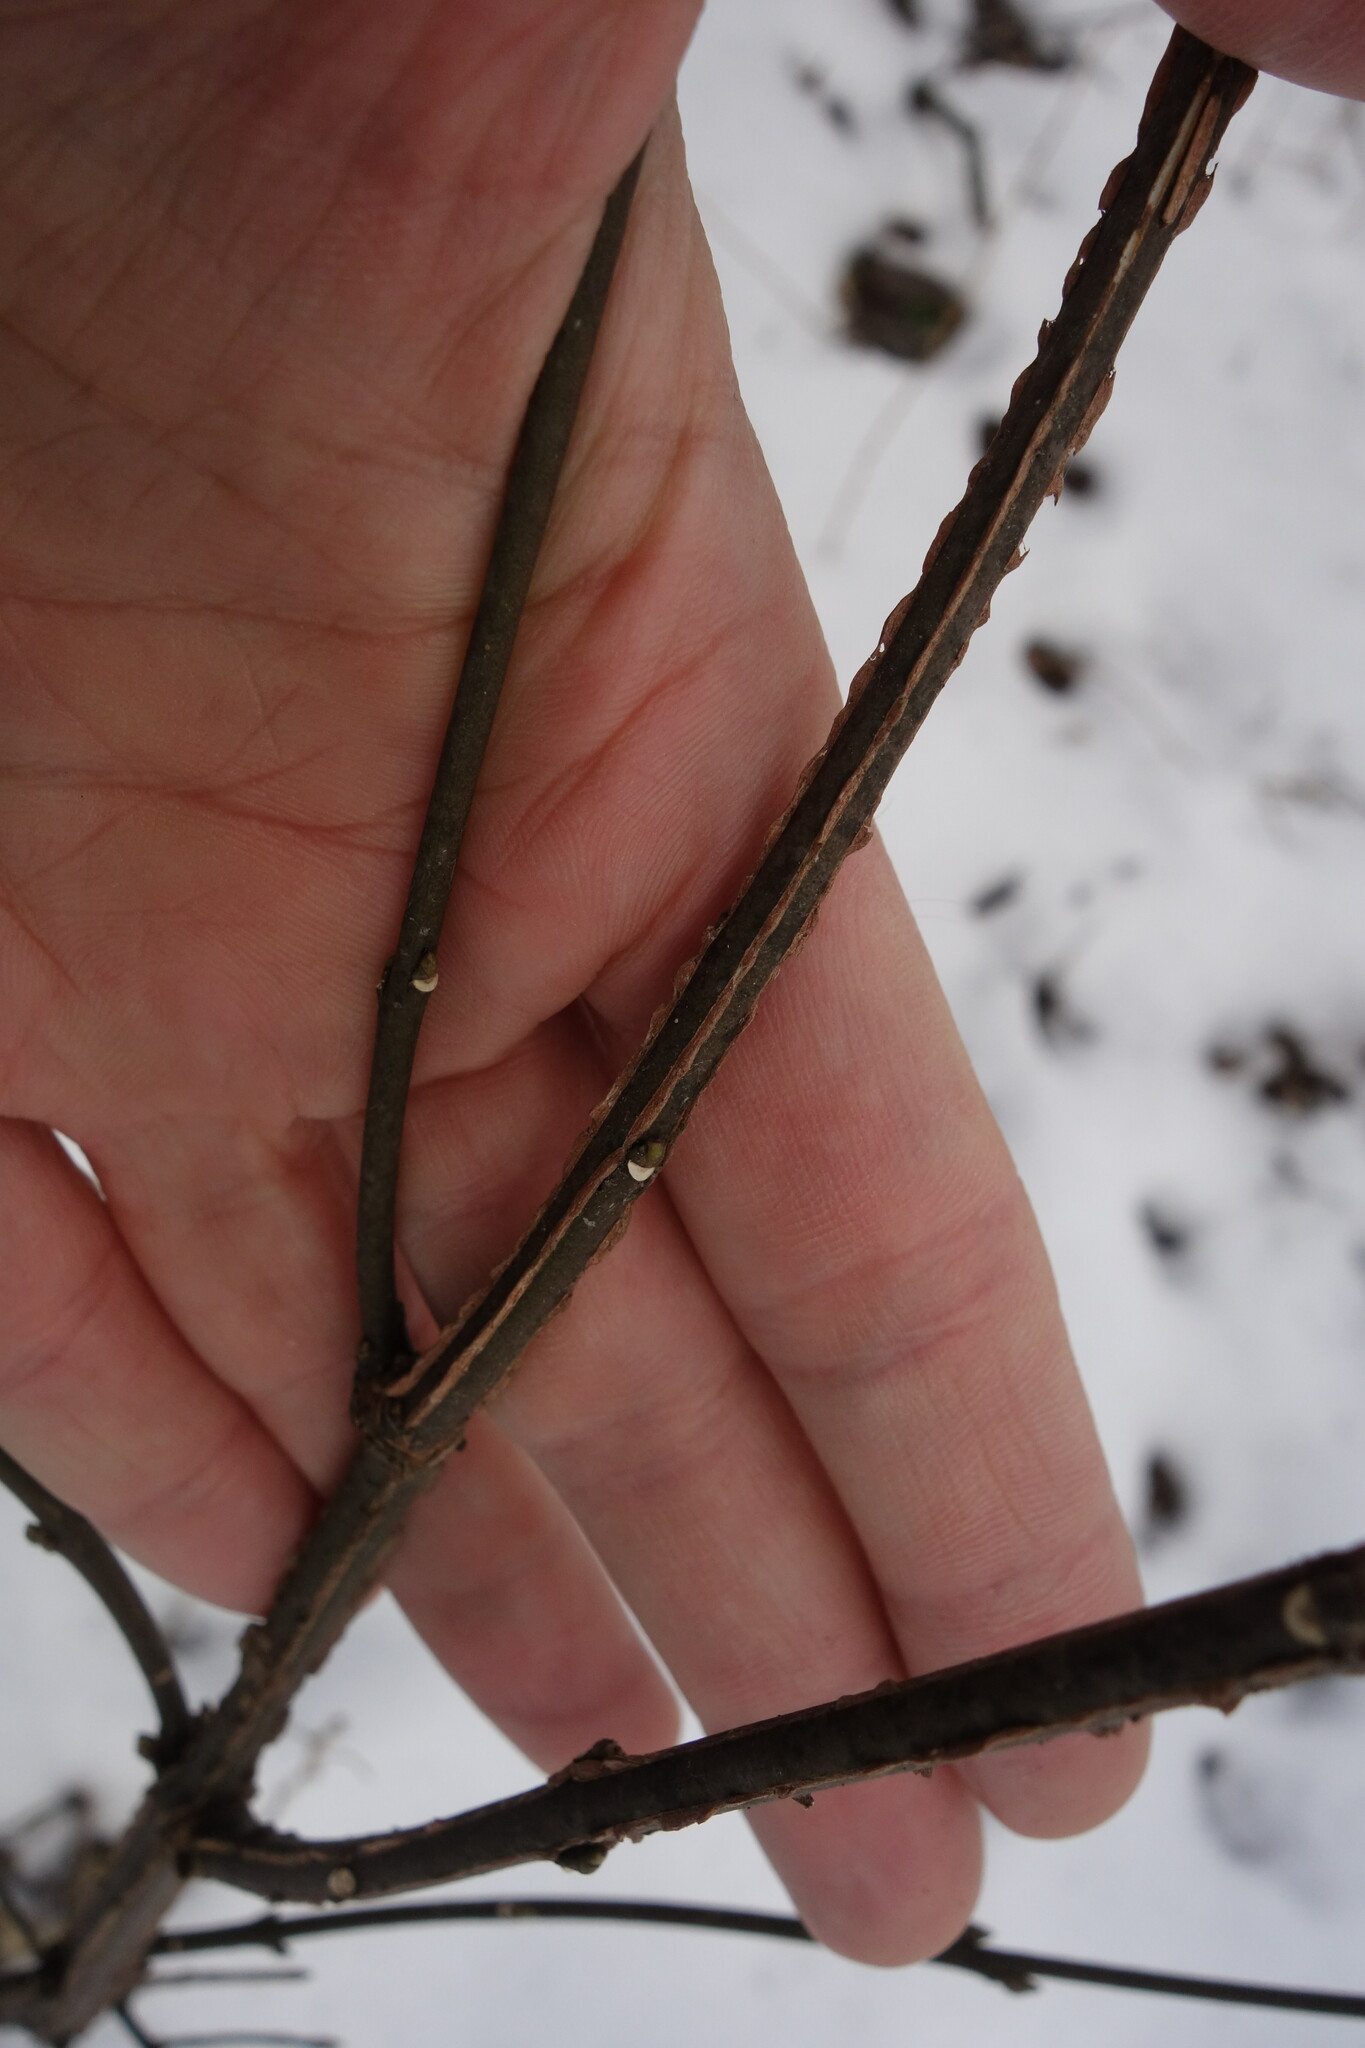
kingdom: Plantae
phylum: Tracheophyta
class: Magnoliopsida
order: Celastrales
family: Celastraceae
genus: Euonymus
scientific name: Euonymus europaeus
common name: Spindle
